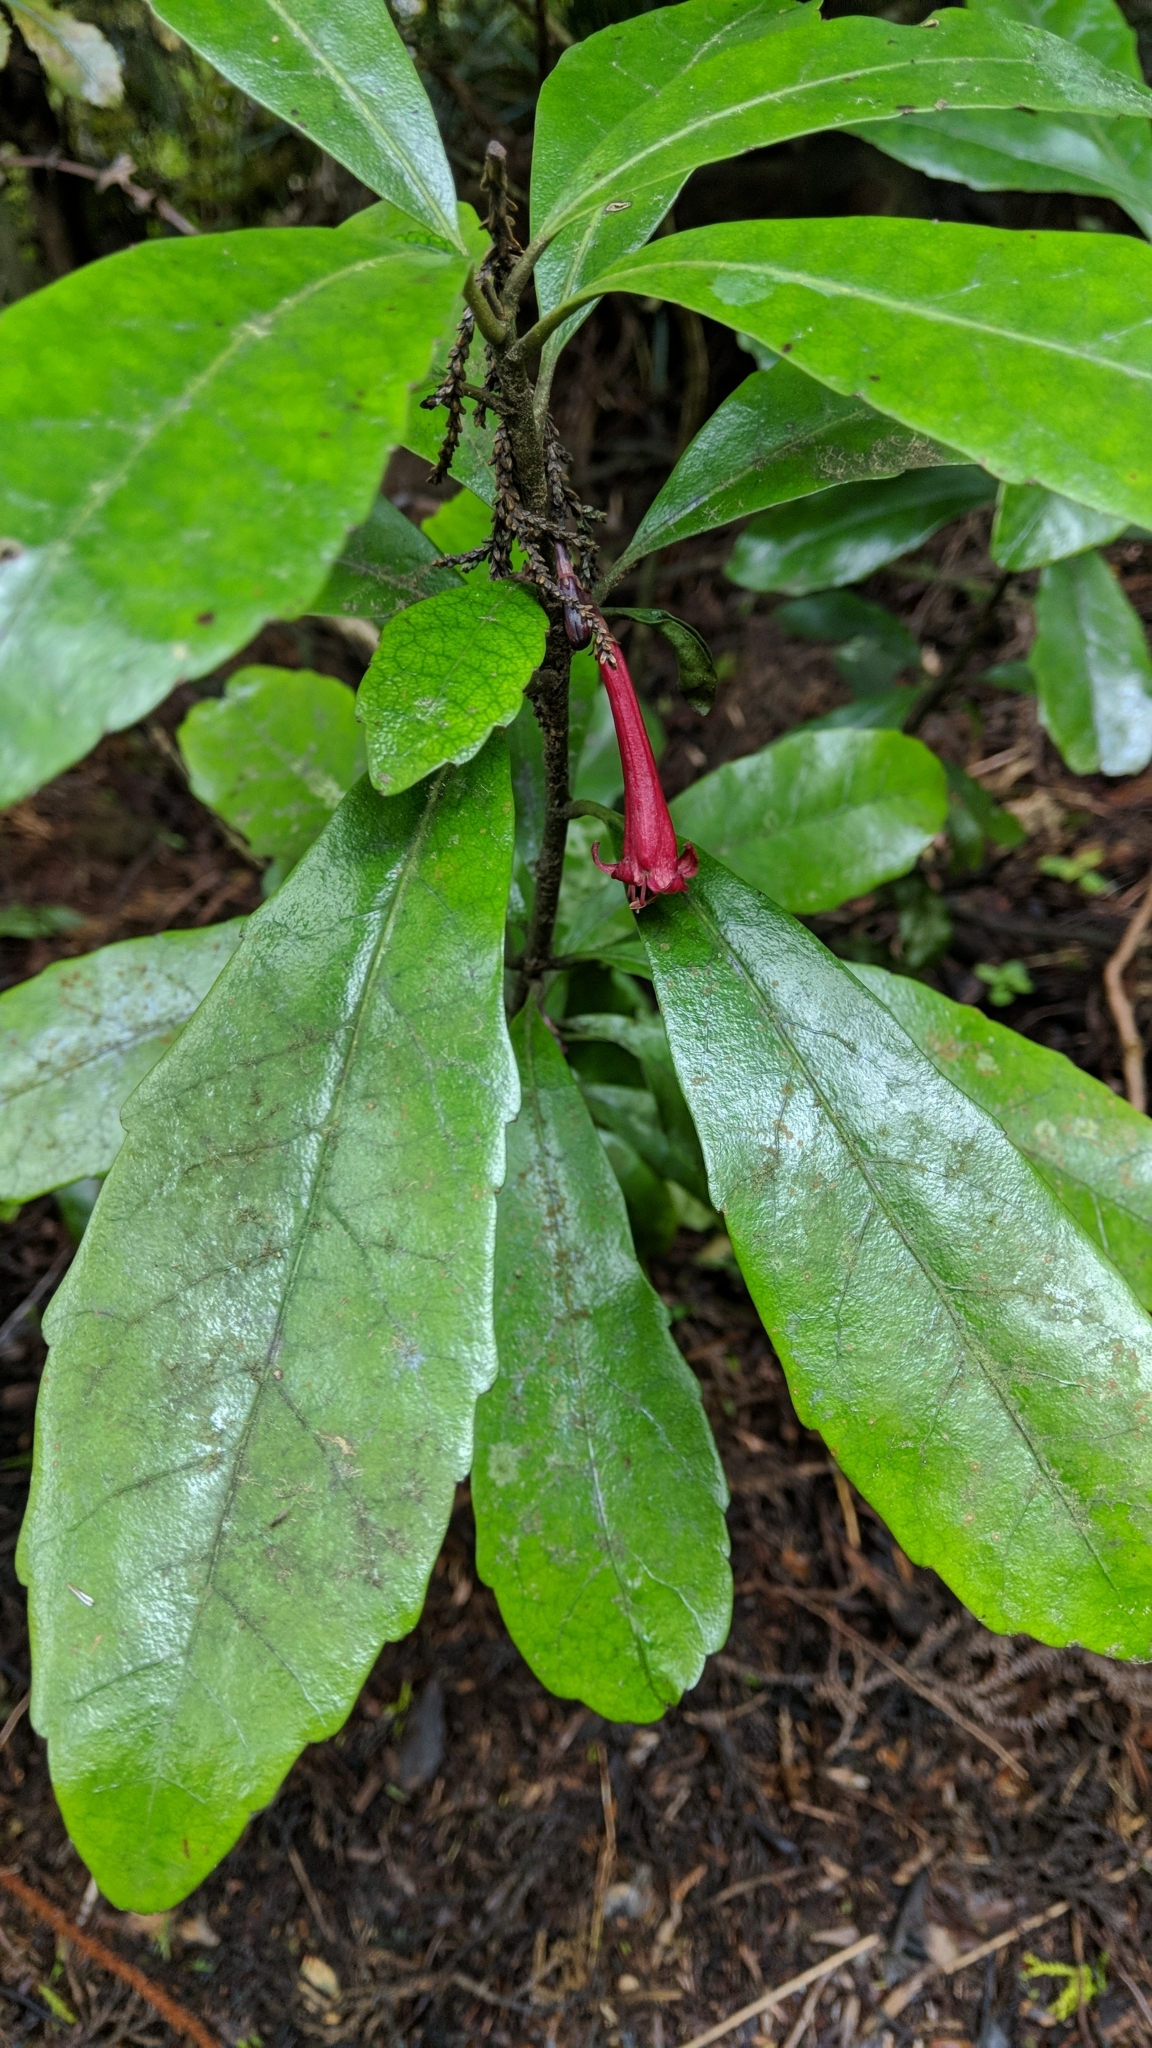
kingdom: Plantae
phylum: Tracheophyta
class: Magnoliopsida
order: Asterales
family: Alseuosmiaceae
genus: Alseuosmia
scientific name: Alseuosmia macrophylla
